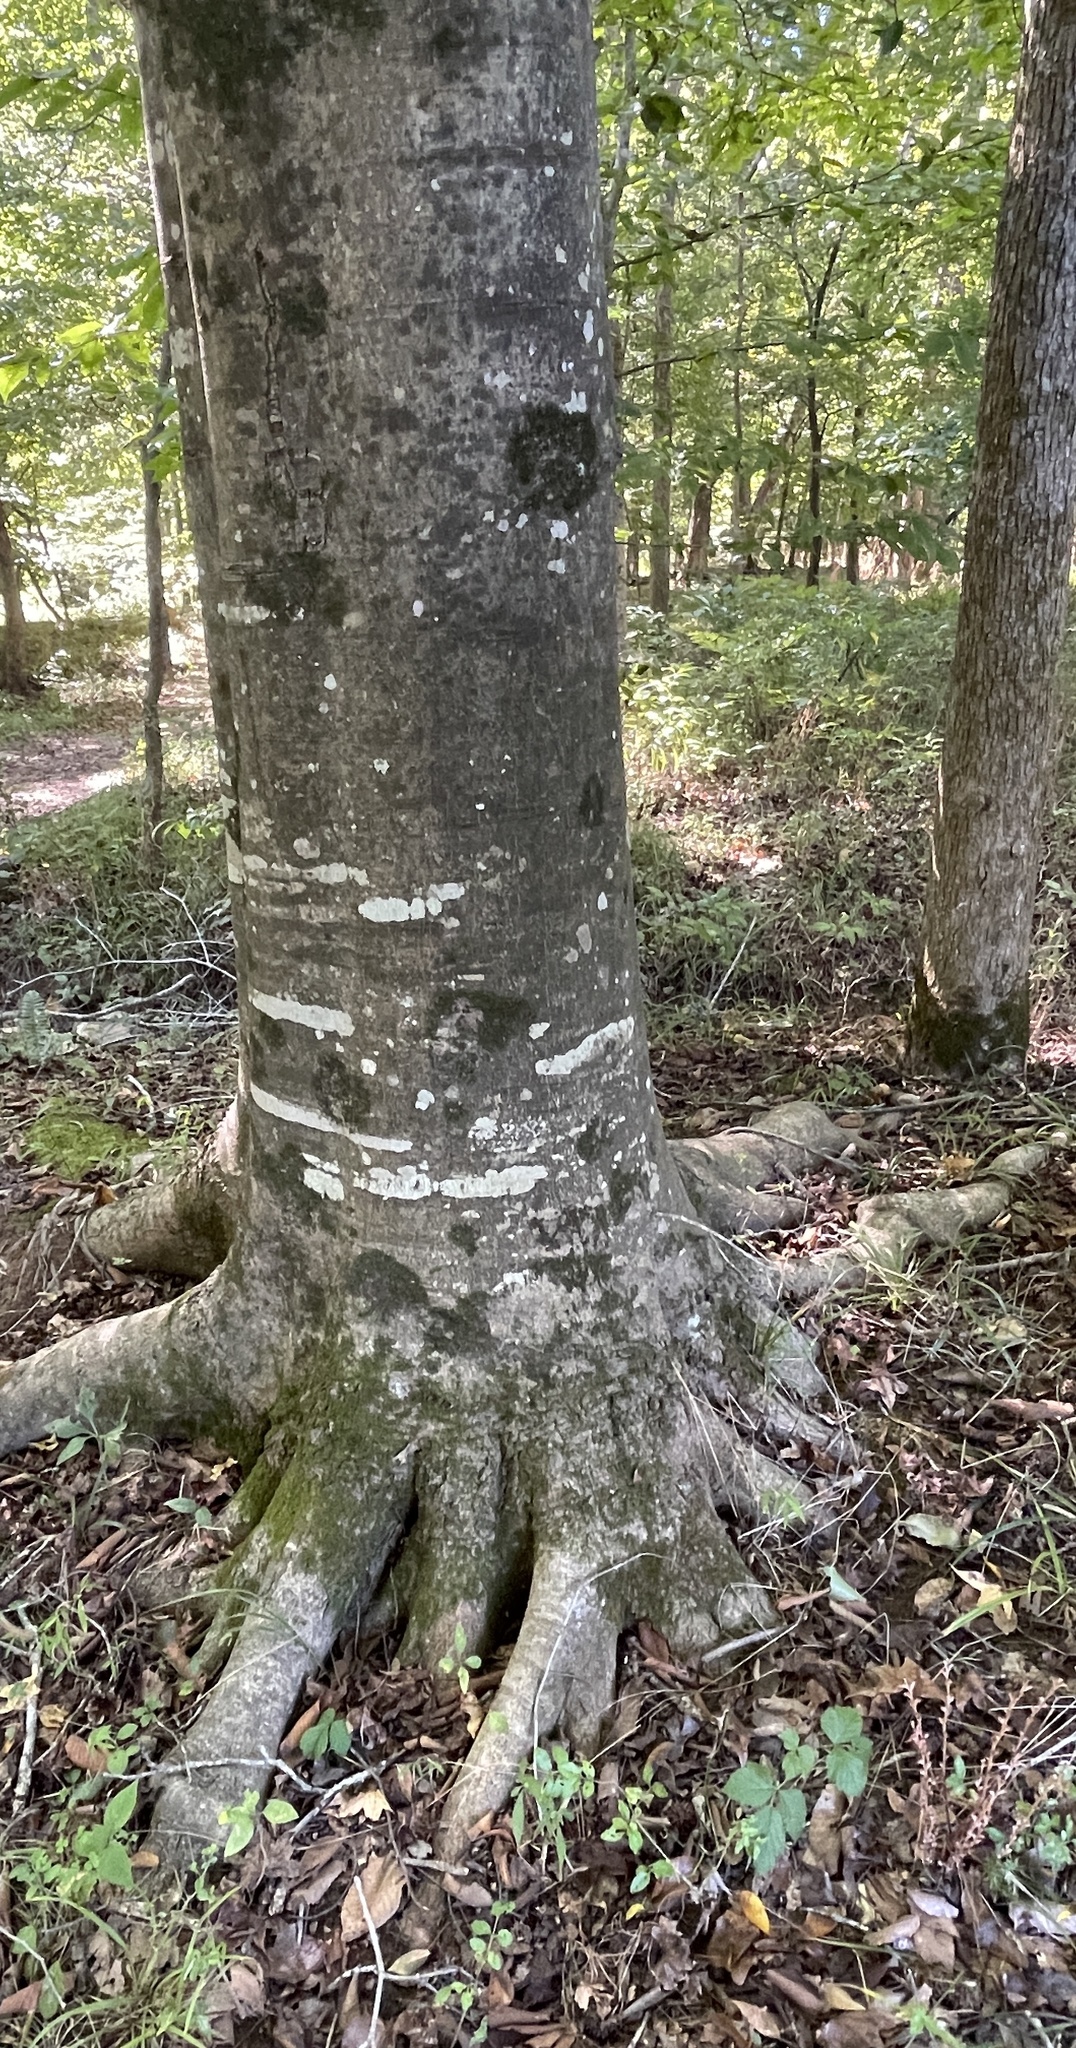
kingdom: Plantae
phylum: Tracheophyta
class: Magnoliopsida
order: Fagales
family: Fagaceae
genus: Fagus
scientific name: Fagus grandifolia
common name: American beech
